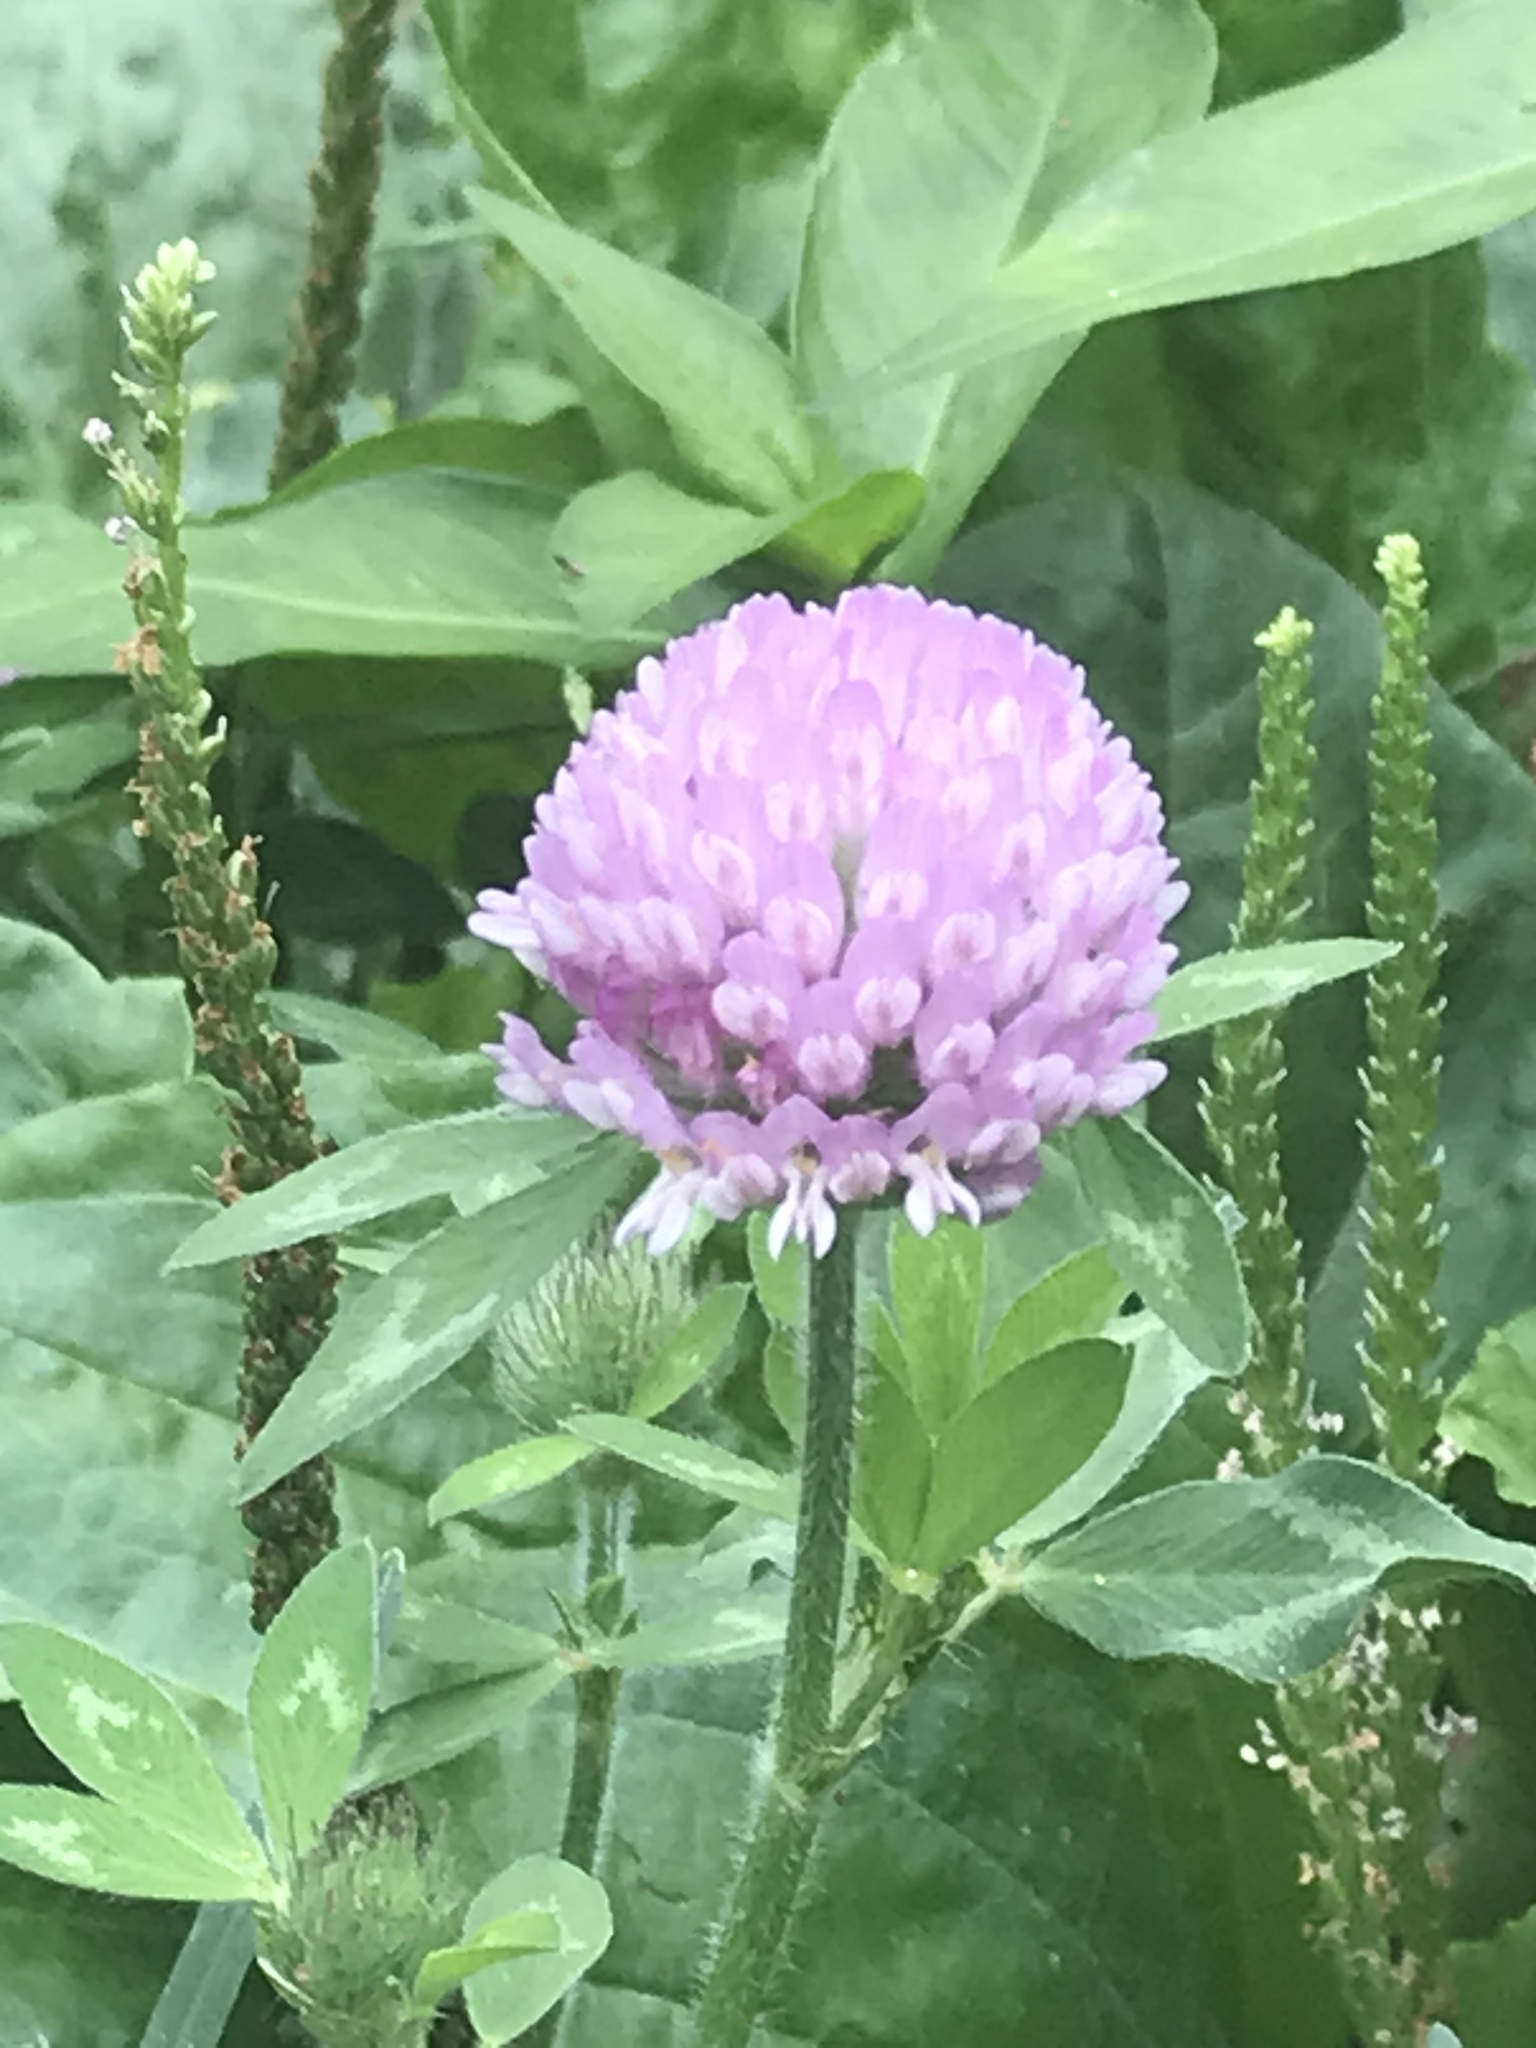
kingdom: Plantae
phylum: Tracheophyta
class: Magnoliopsida
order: Fabales
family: Fabaceae
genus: Trifolium
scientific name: Trifolium pratense
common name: Red clover
